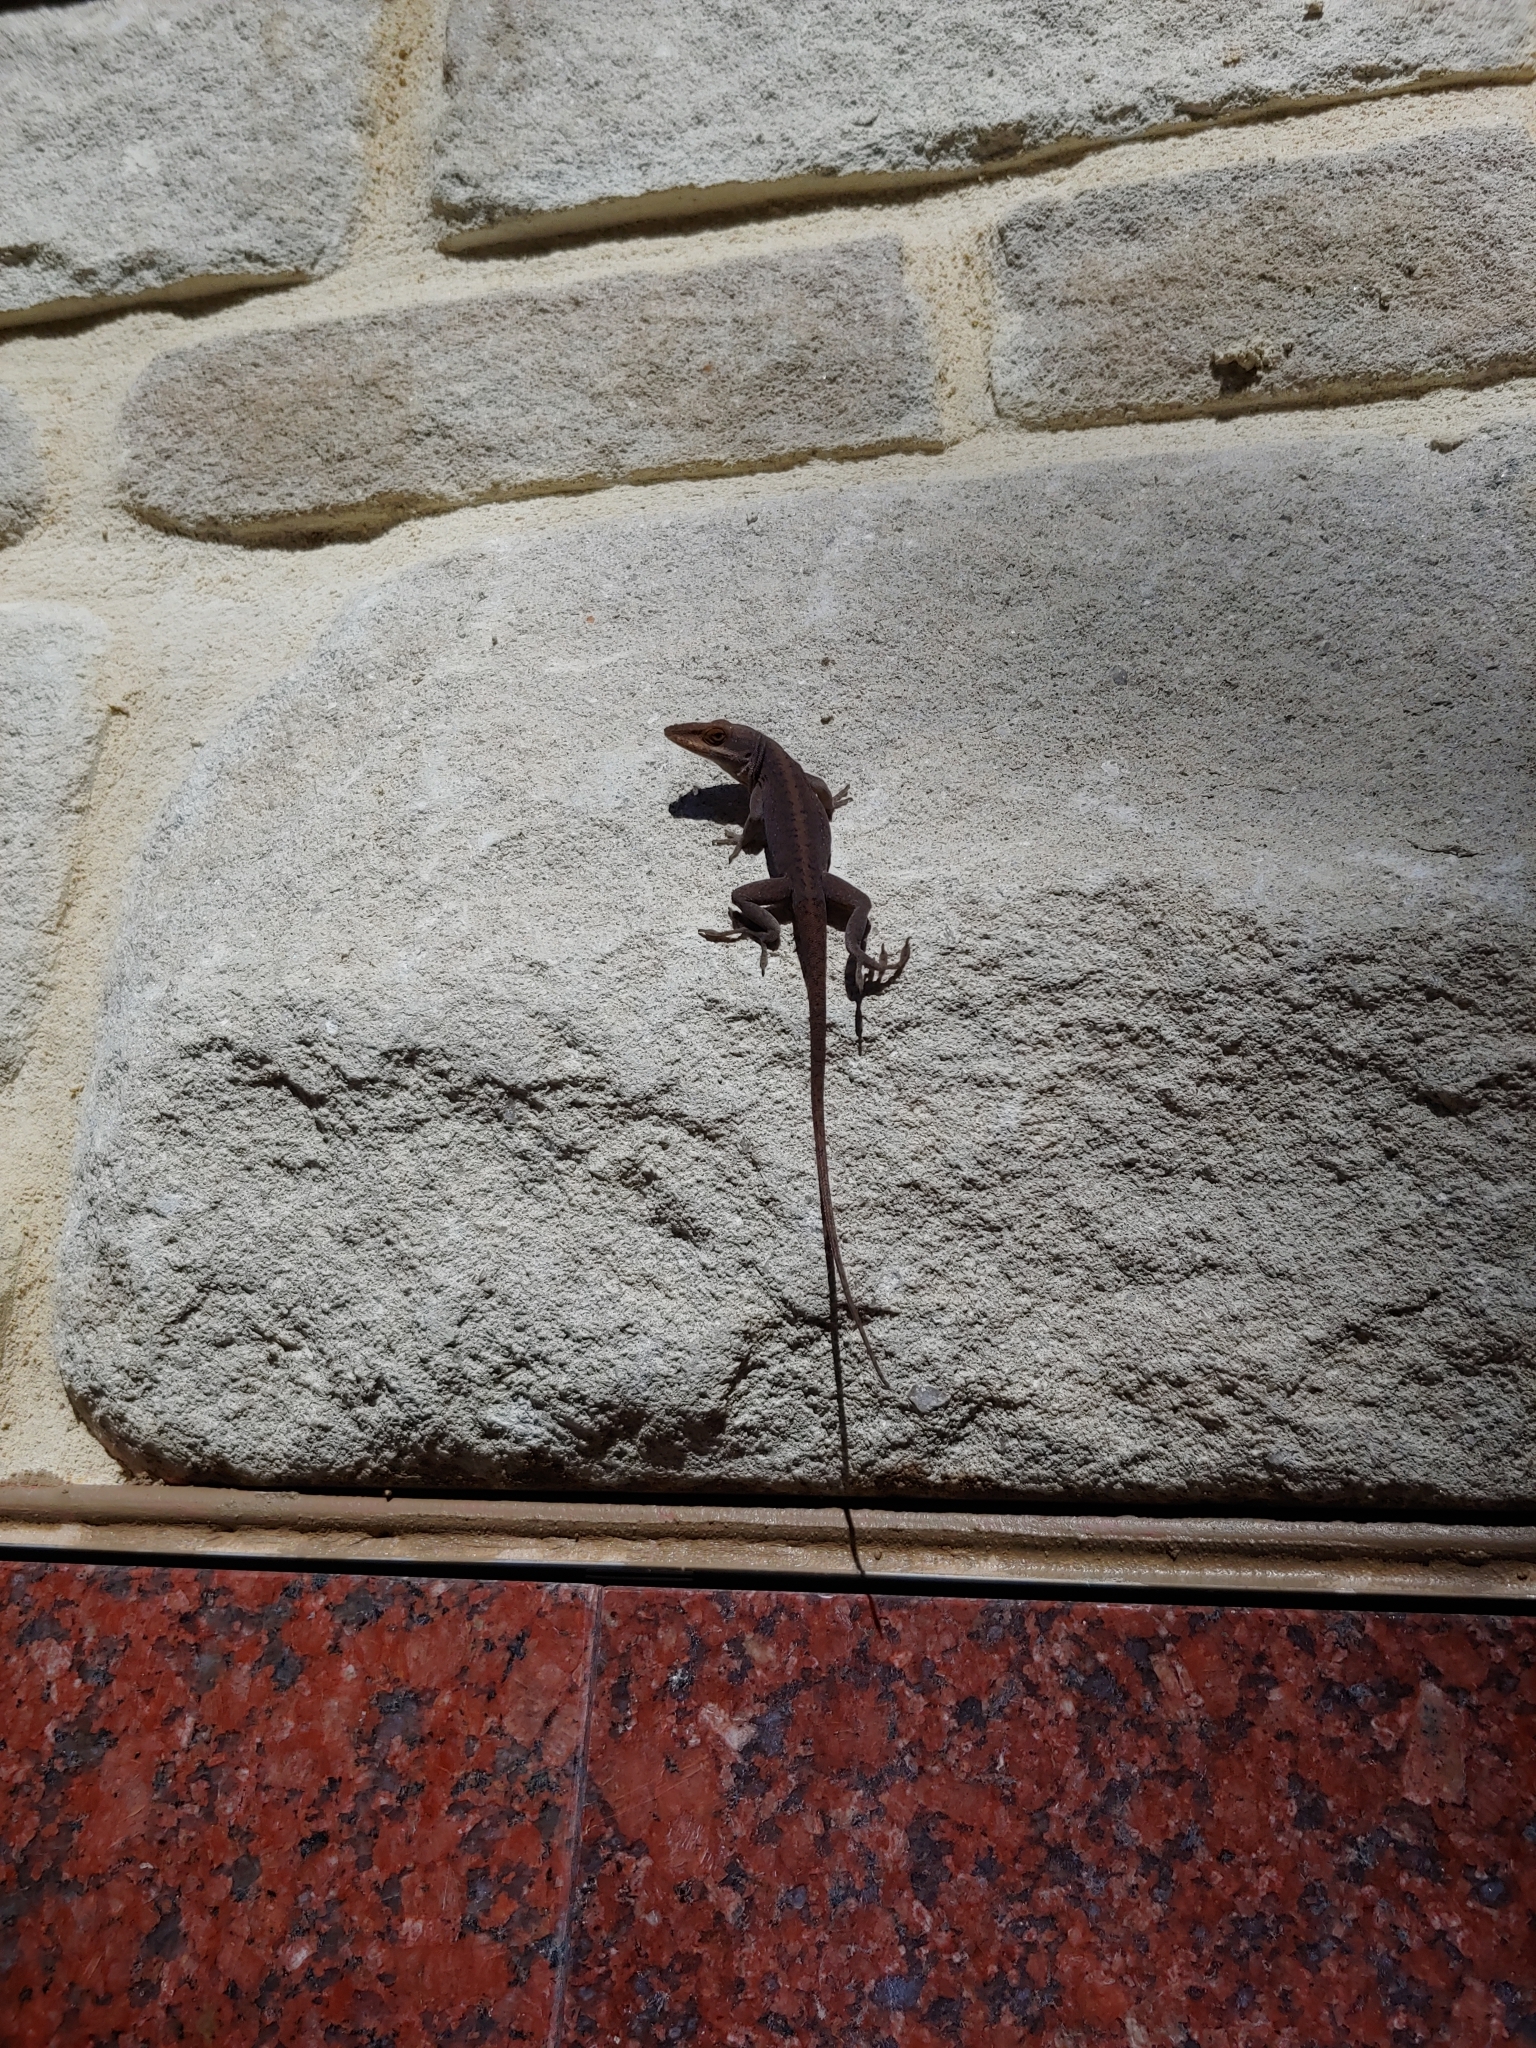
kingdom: Animalia
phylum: Chordata
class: Squamata
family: Dactyloidae
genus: Anolis
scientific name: Anolis carolinensis
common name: Green anole
